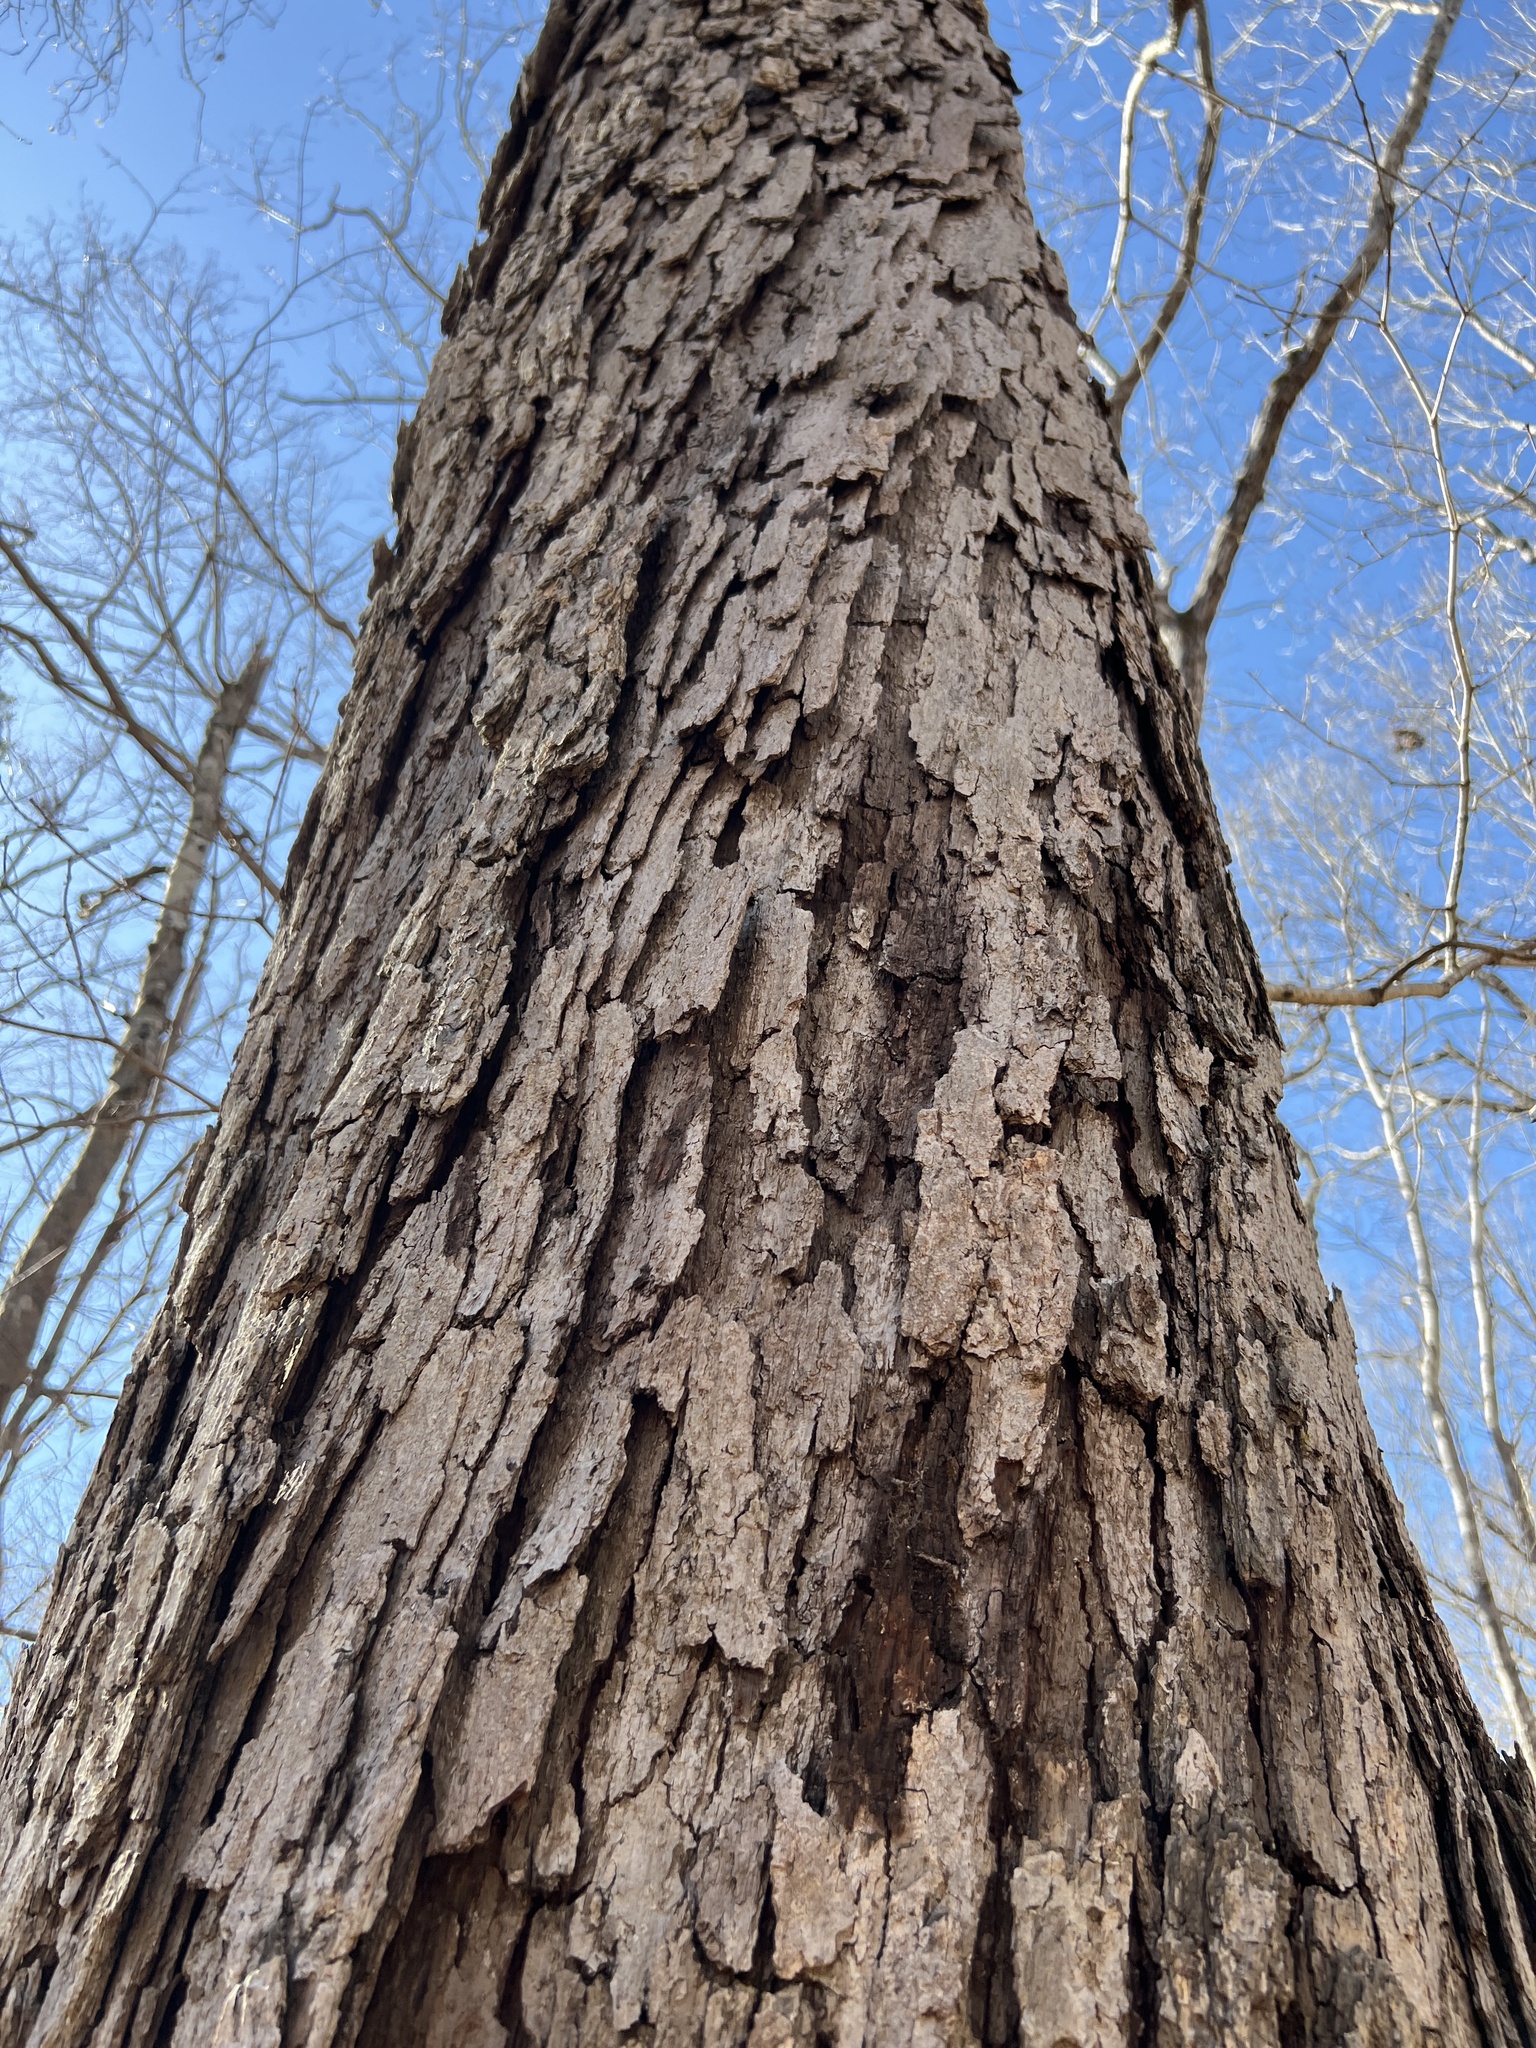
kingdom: Plantae
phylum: Tracheophyta
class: Magnoliopsida
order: Fagales
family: Fagaceae
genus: Quercus
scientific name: Quercus alba
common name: White oak
